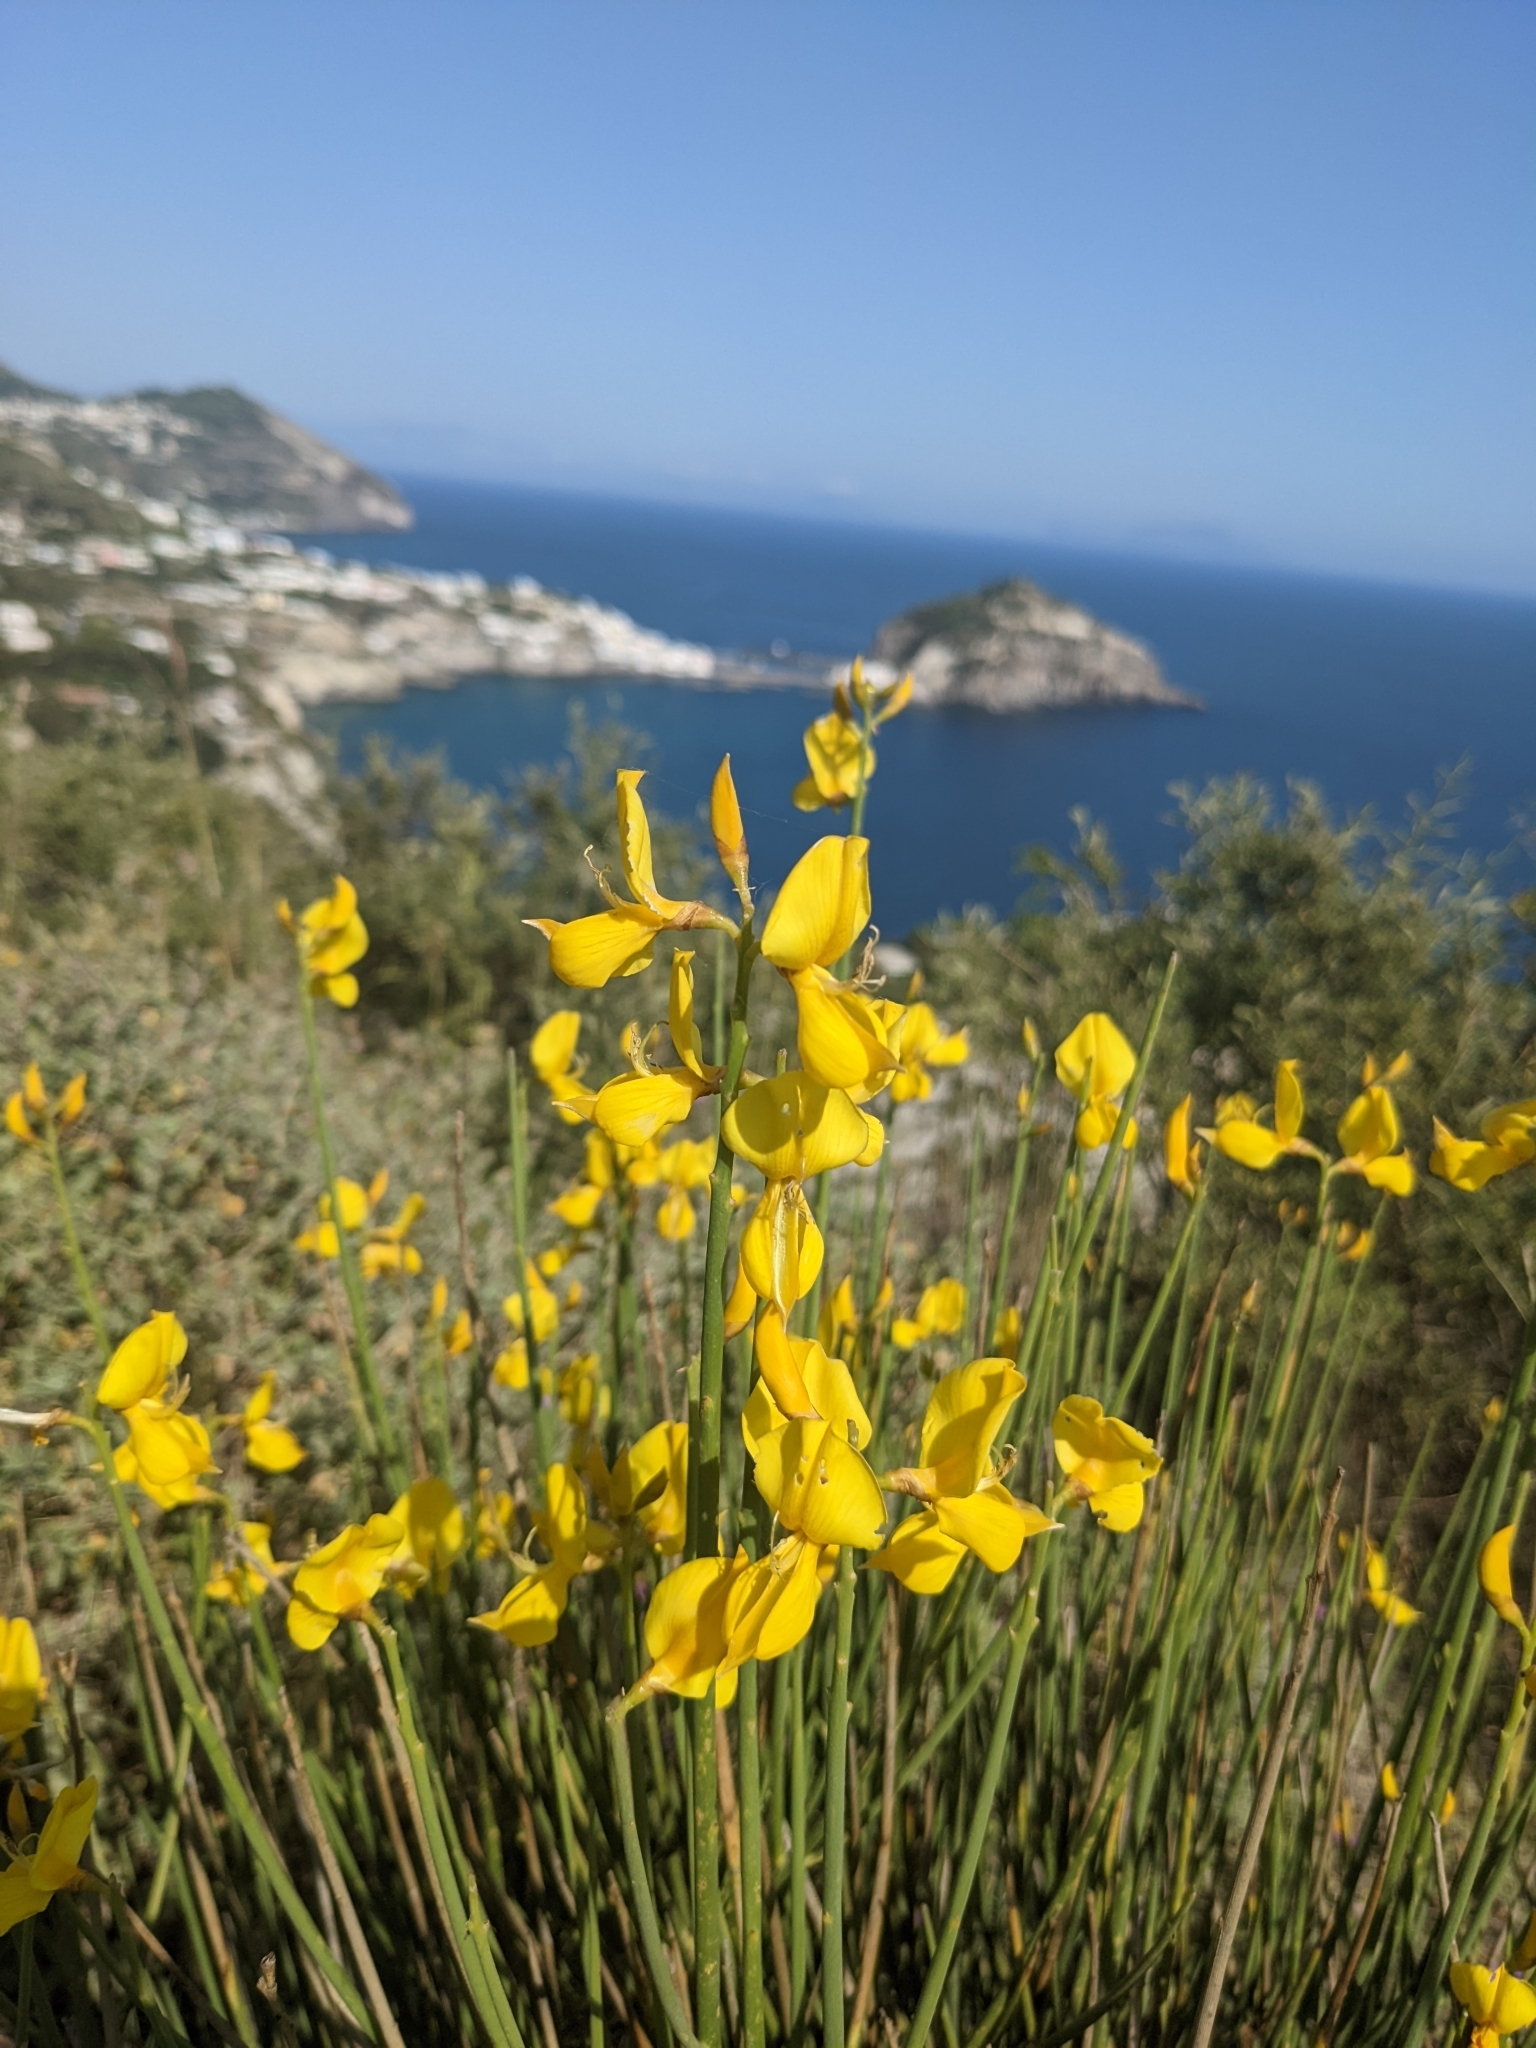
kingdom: Plantae
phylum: Tracheophyta
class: Magnoliopsida
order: Fabales
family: Fabaceae
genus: Spartium
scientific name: Spartium junceum
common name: Spanish broom
